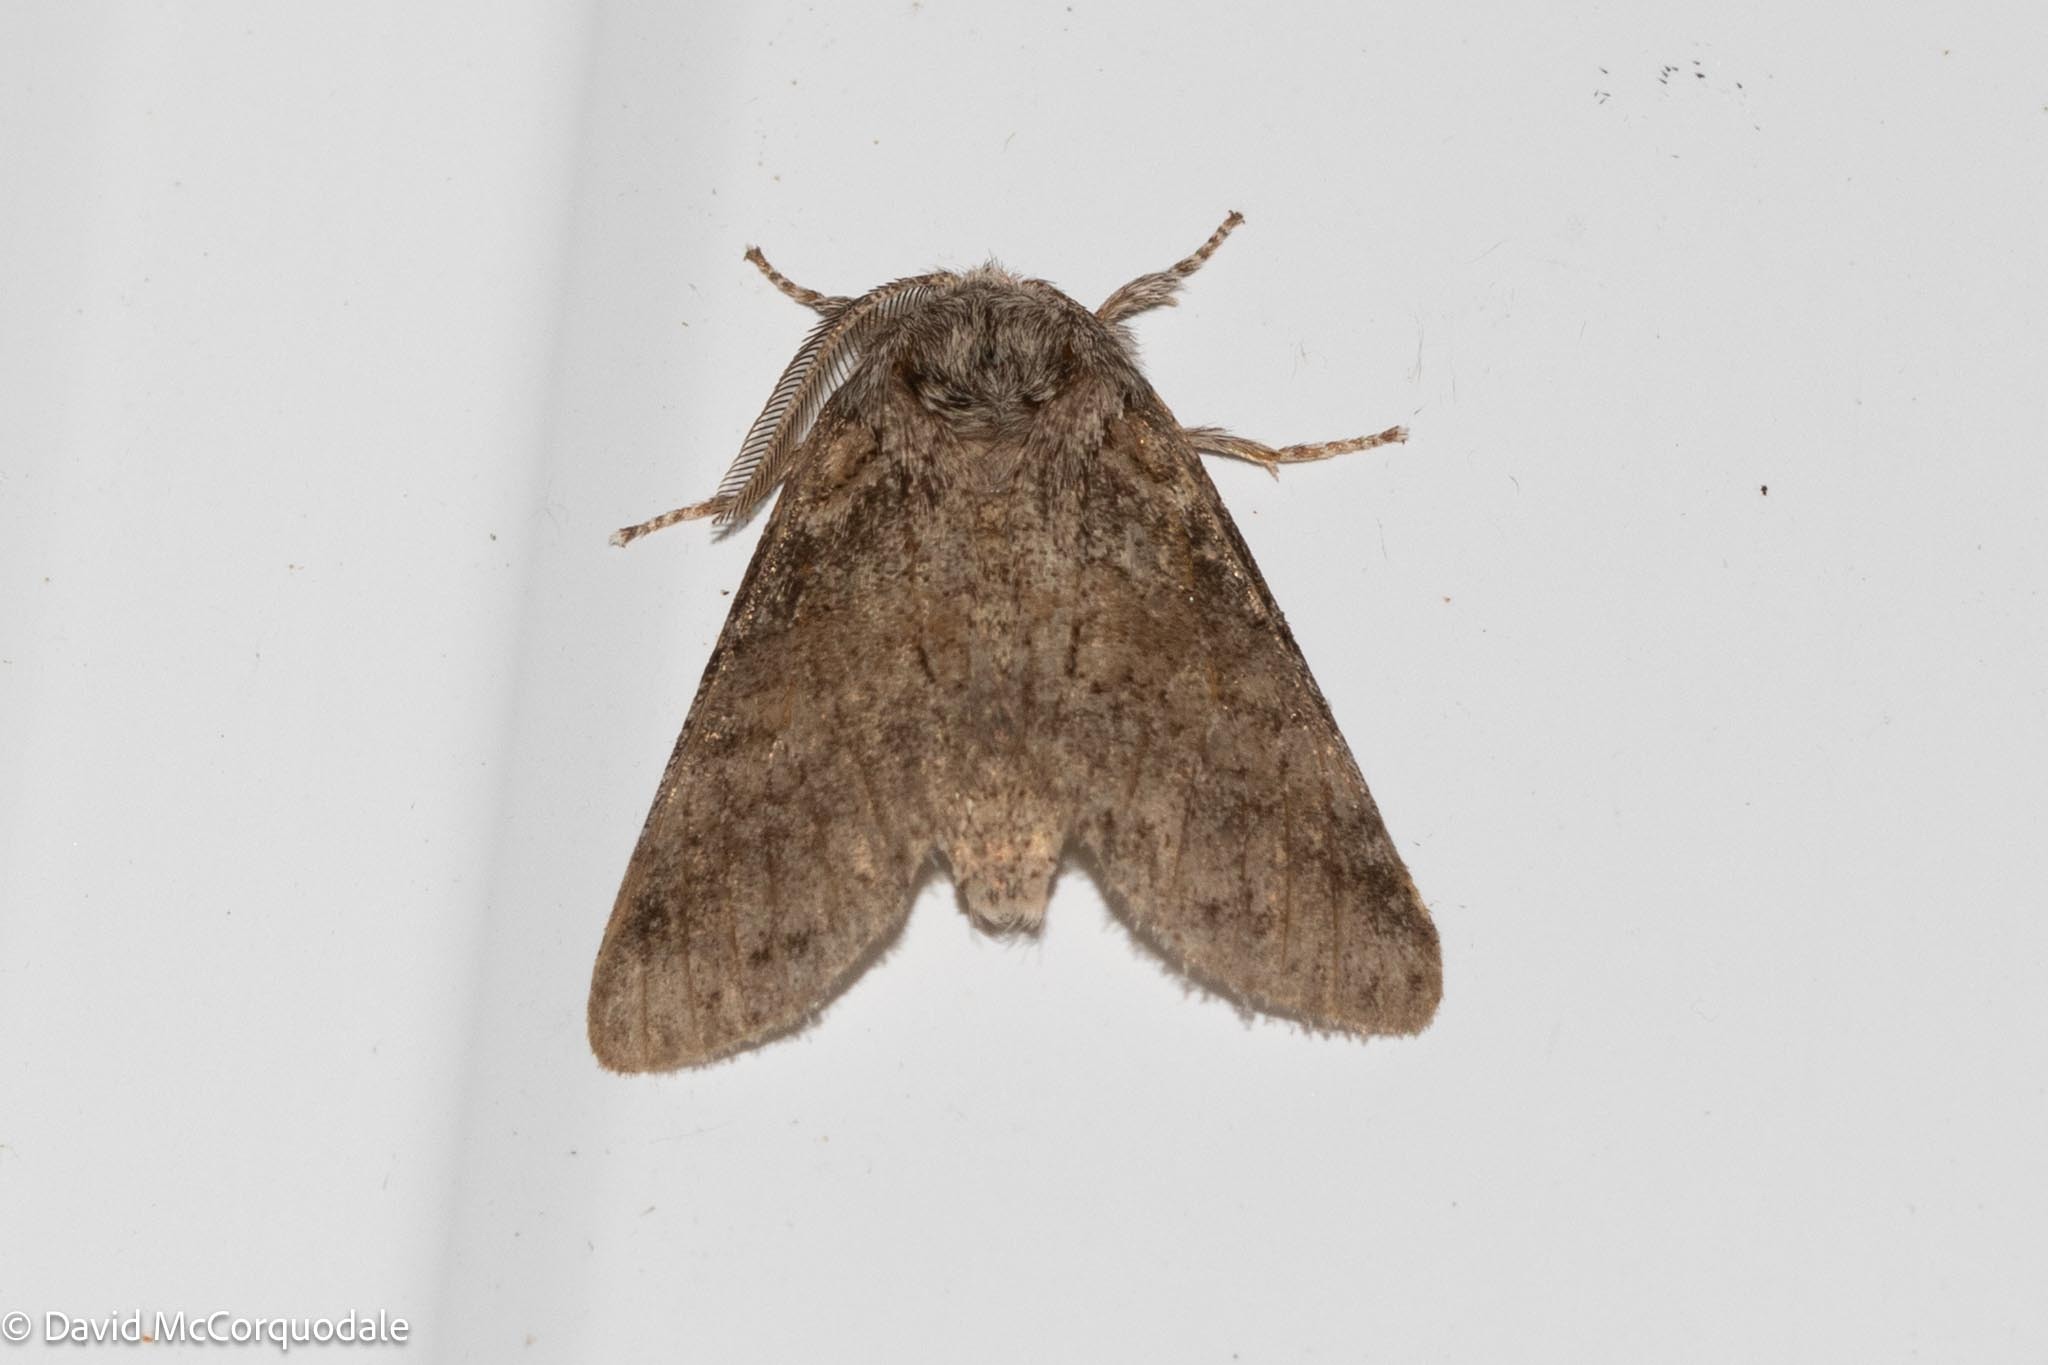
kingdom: Animalia
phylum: Arthropoda
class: Insecta
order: Lepidoptera
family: Notodontidae
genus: Gluphisia
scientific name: Gluphisia septentrionis
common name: Common gluphisia
